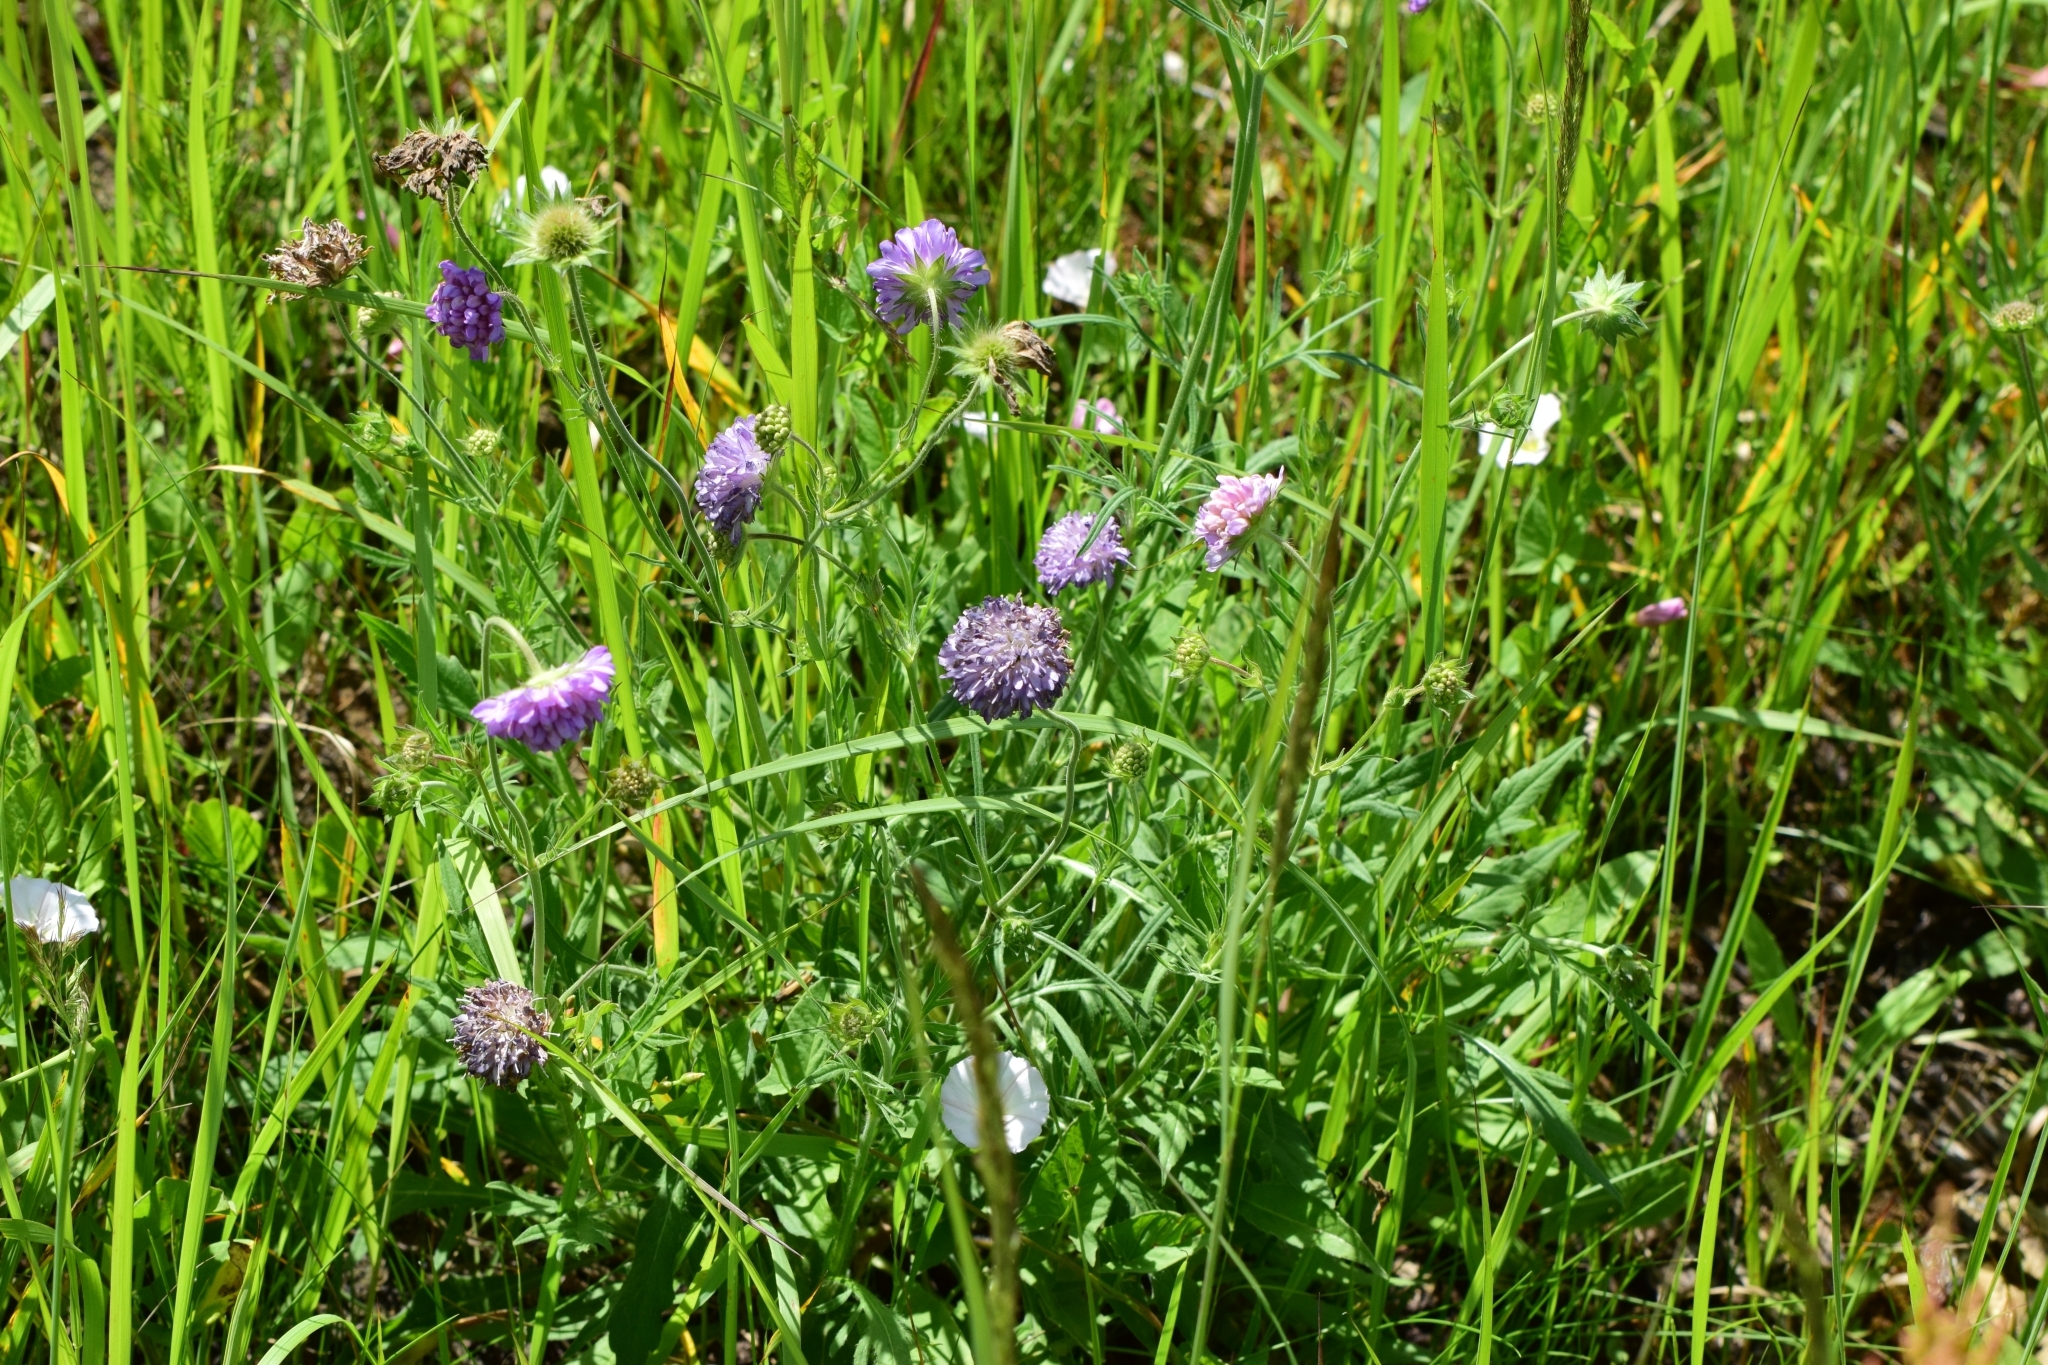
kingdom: Plantae
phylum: Tracheophyta
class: Magnoliopsida
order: Dipsacales
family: Caprifoliaceae
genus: Knautia
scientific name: Knautia arvensis
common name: Field scabiosa
